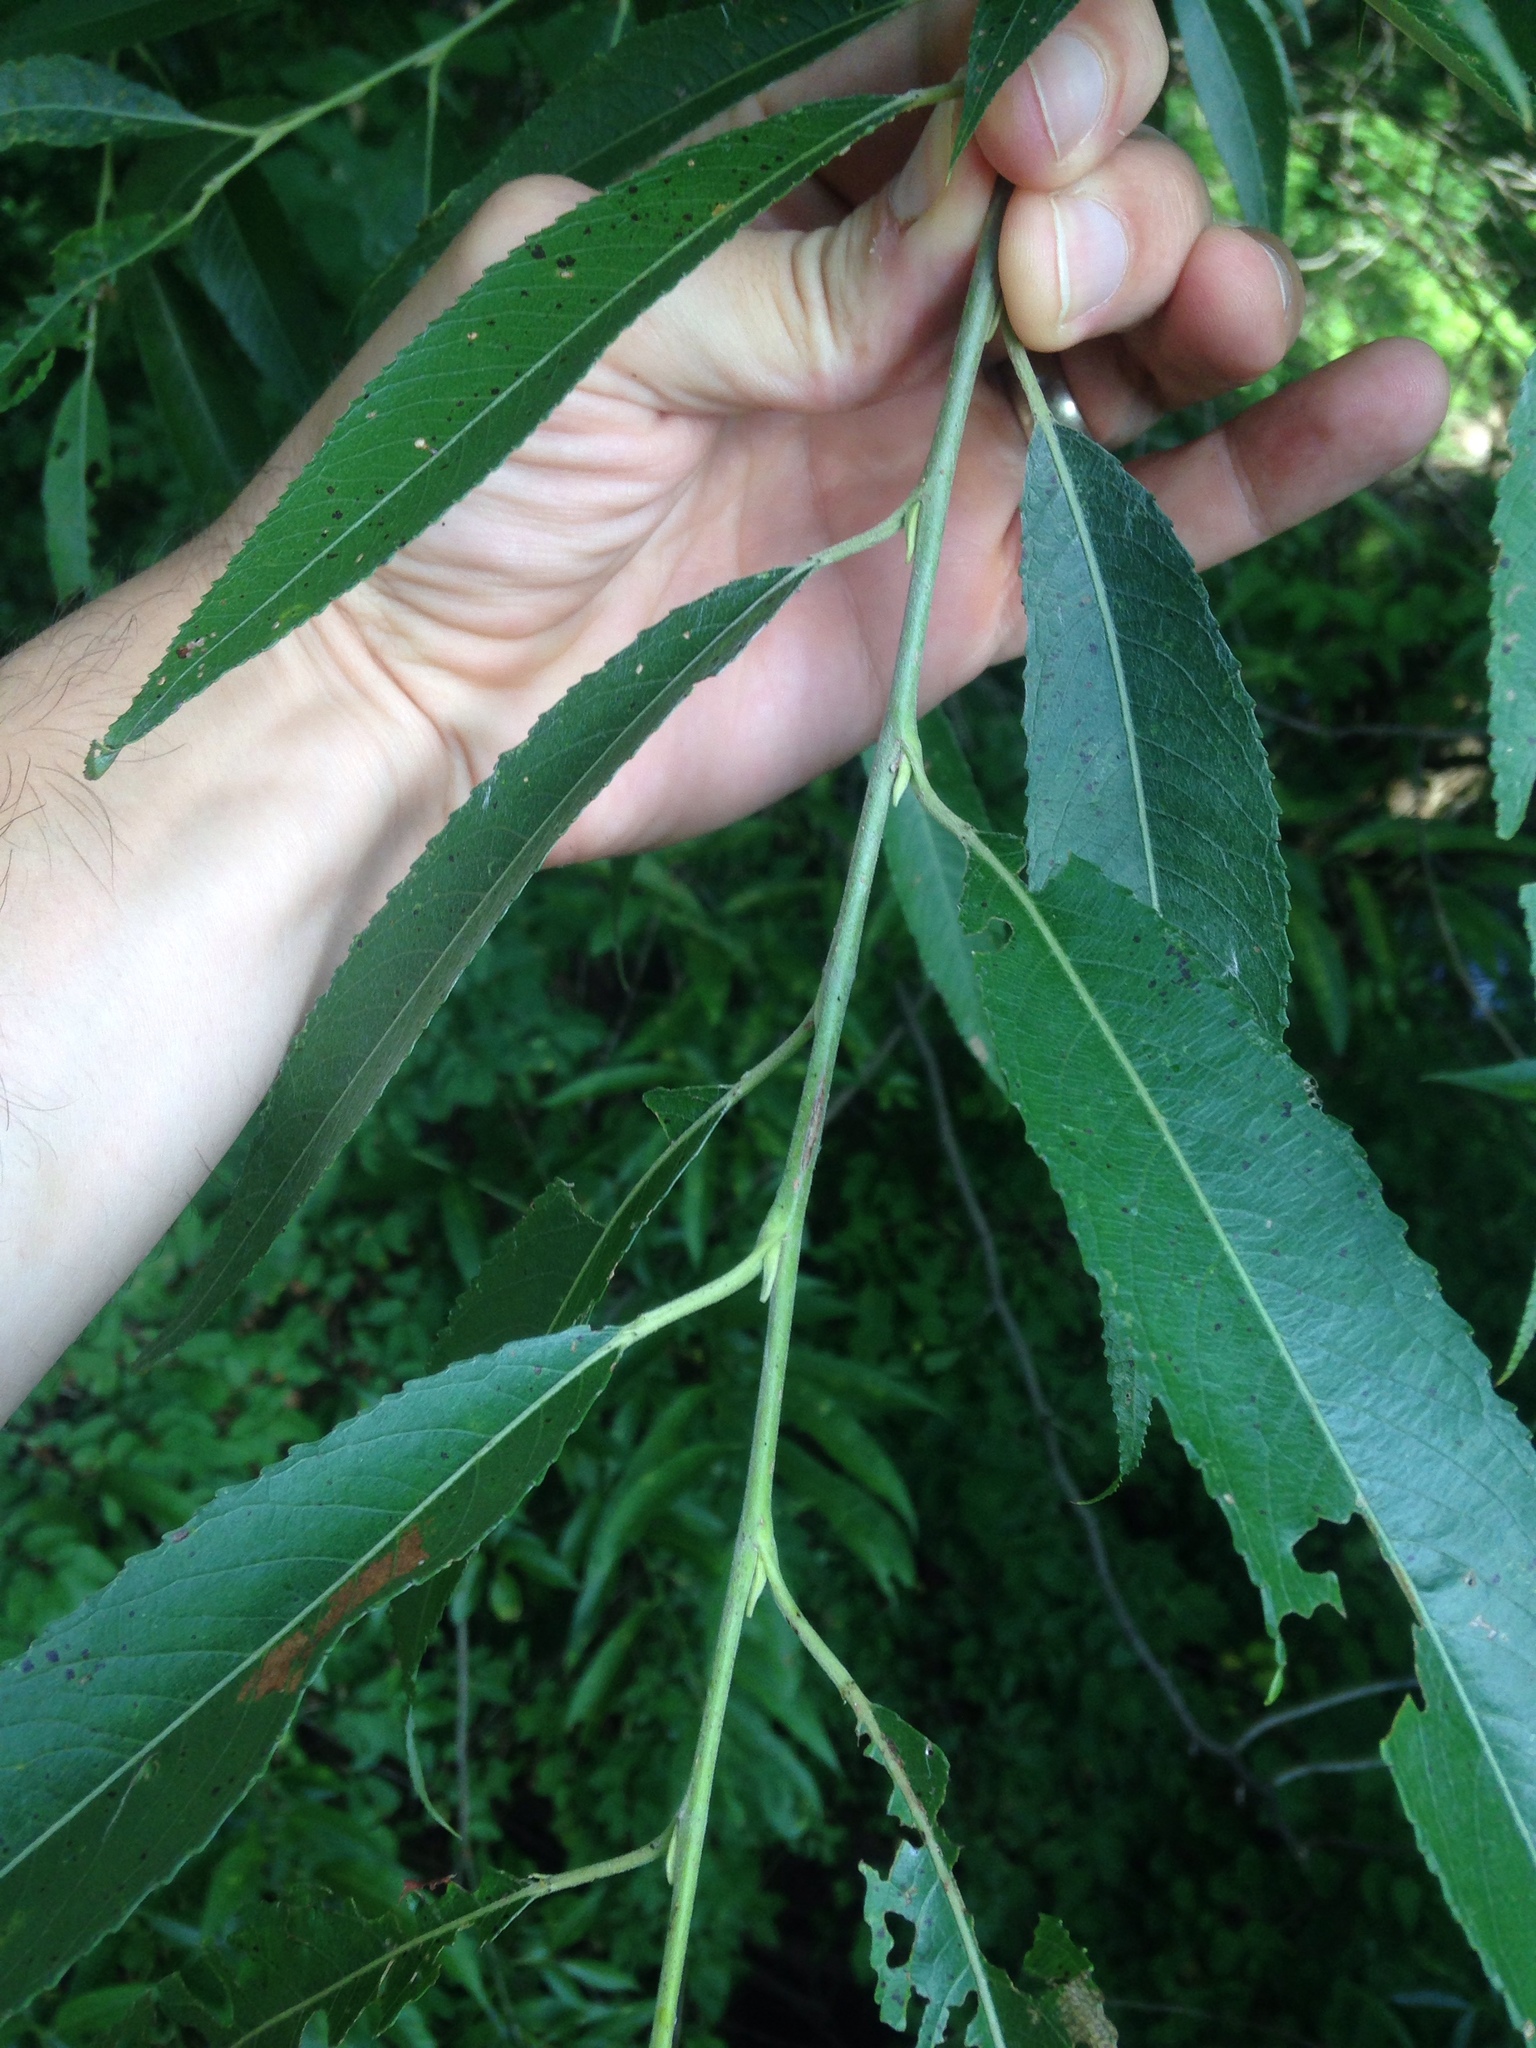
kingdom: Plantae
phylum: Tracheophyta
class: Magnoliopsida
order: Malpighiales
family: Salicaceae
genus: Salix
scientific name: Salix nigra
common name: Black willow
